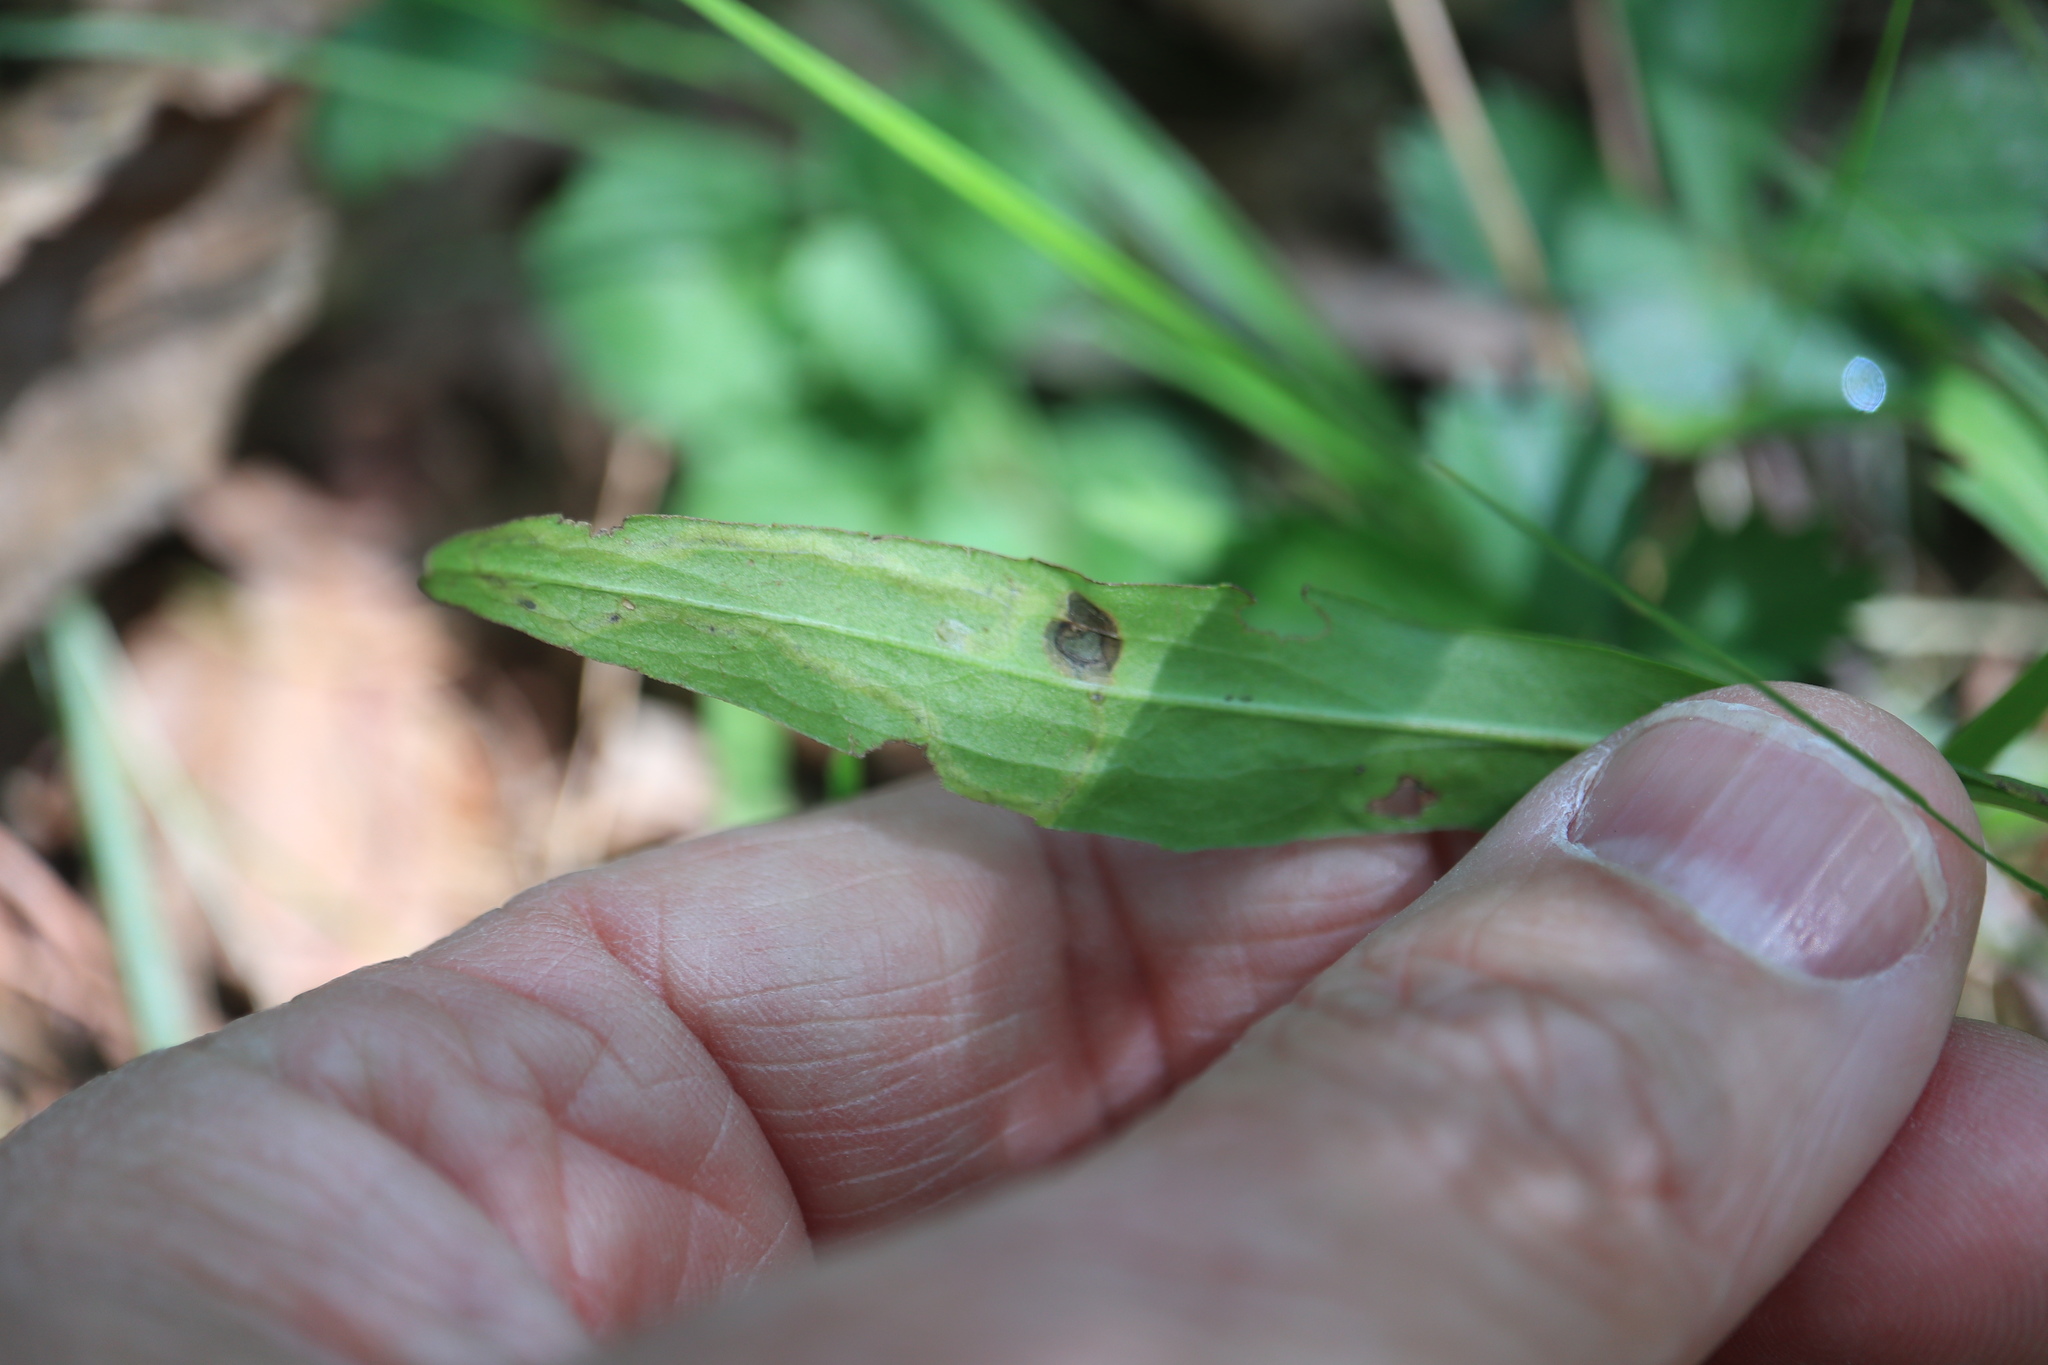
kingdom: Animalia
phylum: Arthropoda
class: Insecta
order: Diptera
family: Agromyzidae
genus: Liriomyza
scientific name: Liriomyza eupatorii
